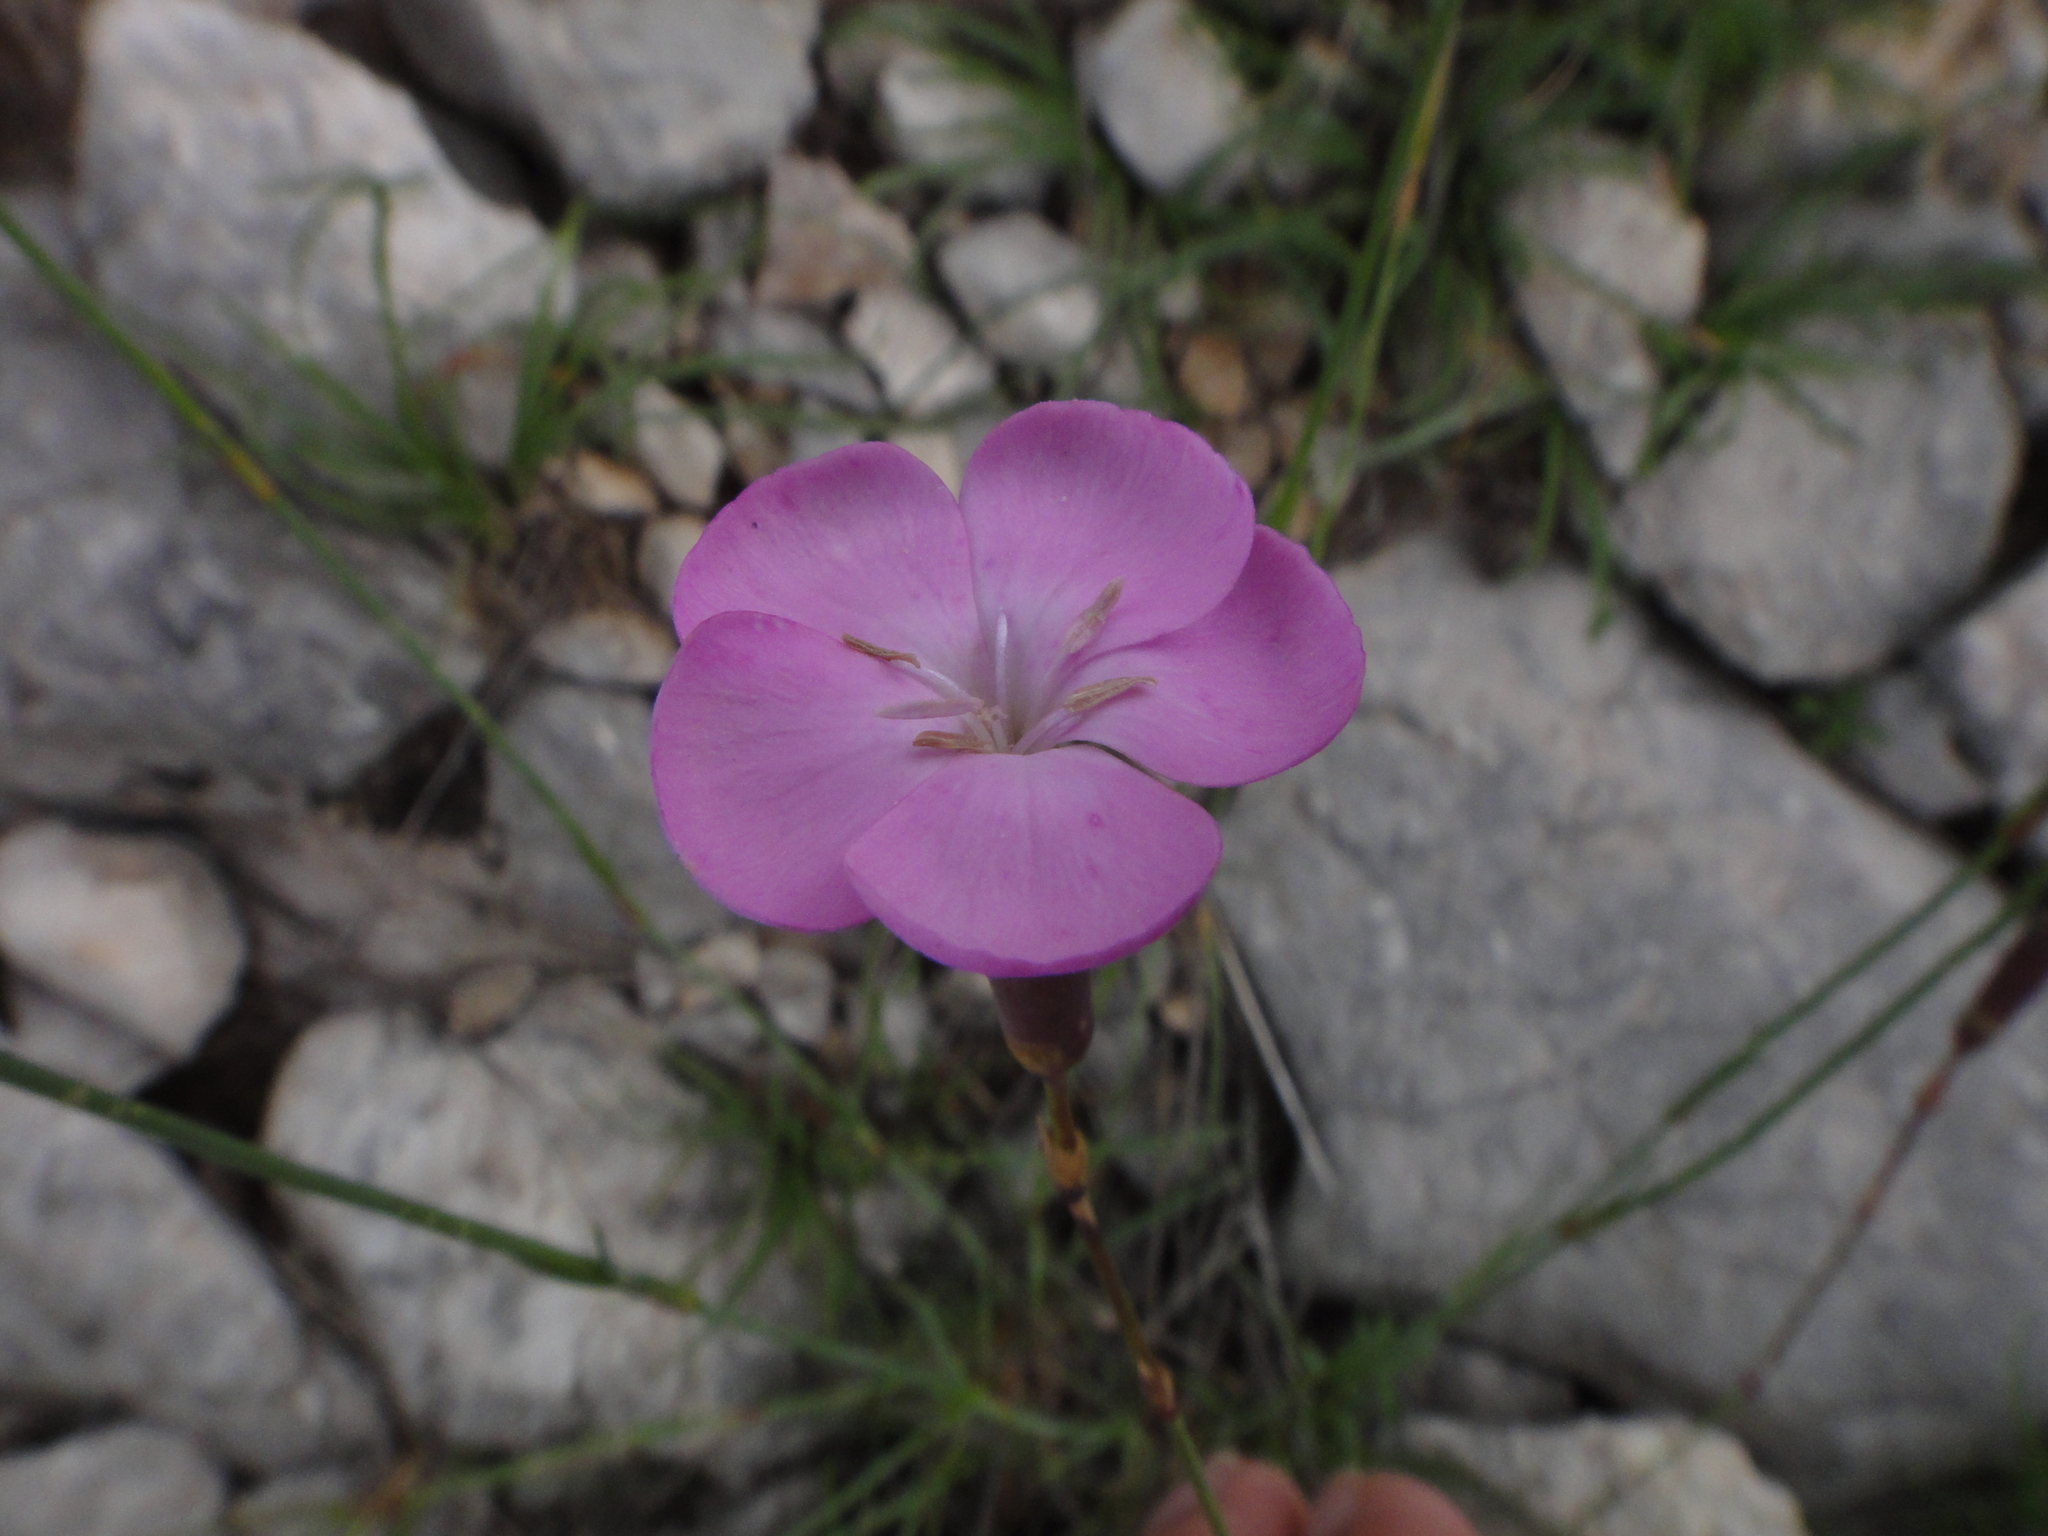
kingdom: Plantae
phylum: Tracheophyta
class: Magnoliopsida
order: Caryophyllales
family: Caryophyllaceae
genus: Dianthus
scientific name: Dianthus sylvestris
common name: Wood pink
